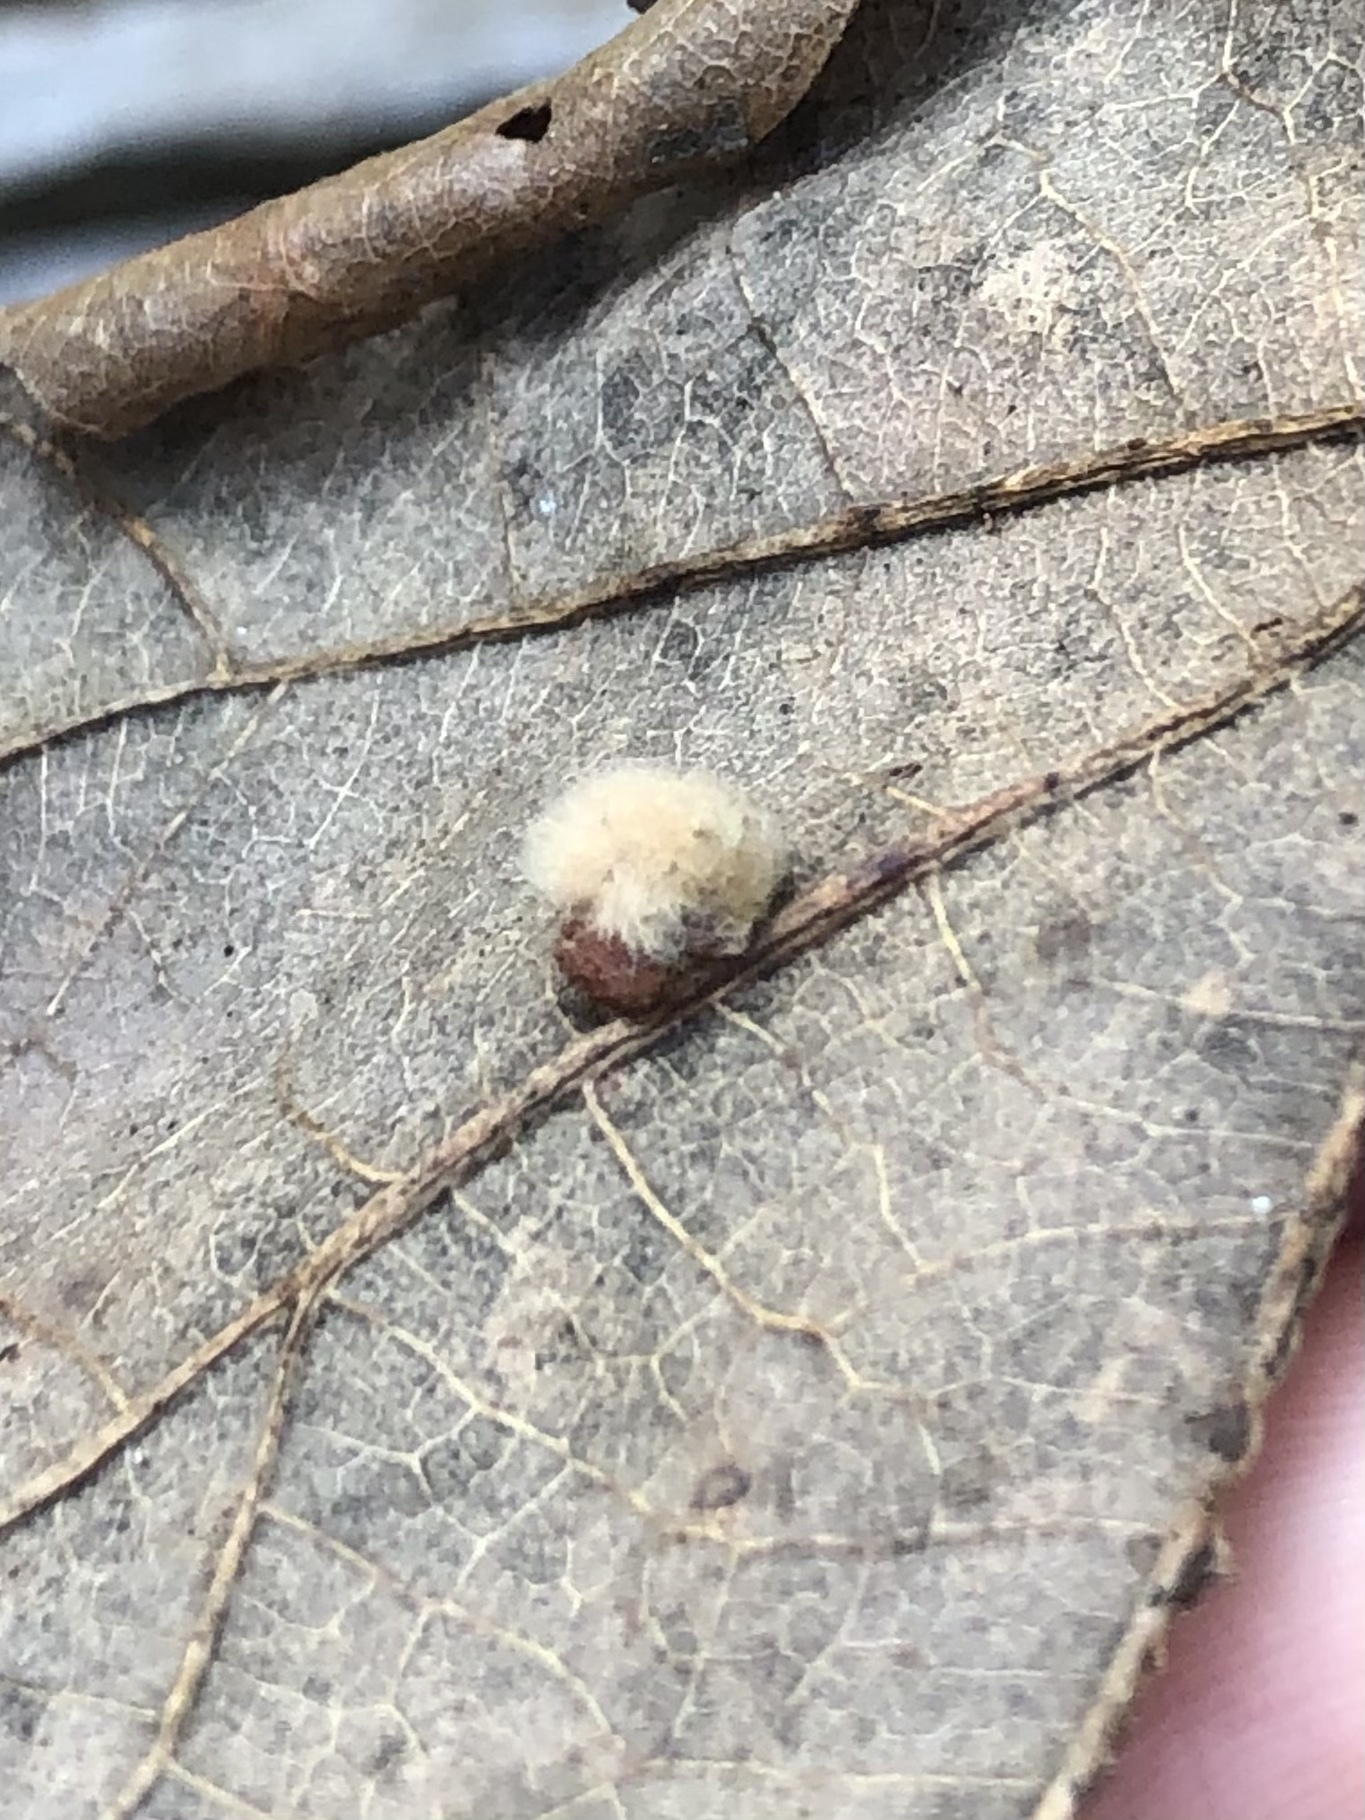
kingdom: Animalia
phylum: Arthropoda
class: Insecta
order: Hymenoptera
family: Cynipidae
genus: Andricus
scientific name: Andricus Druon ignotum
